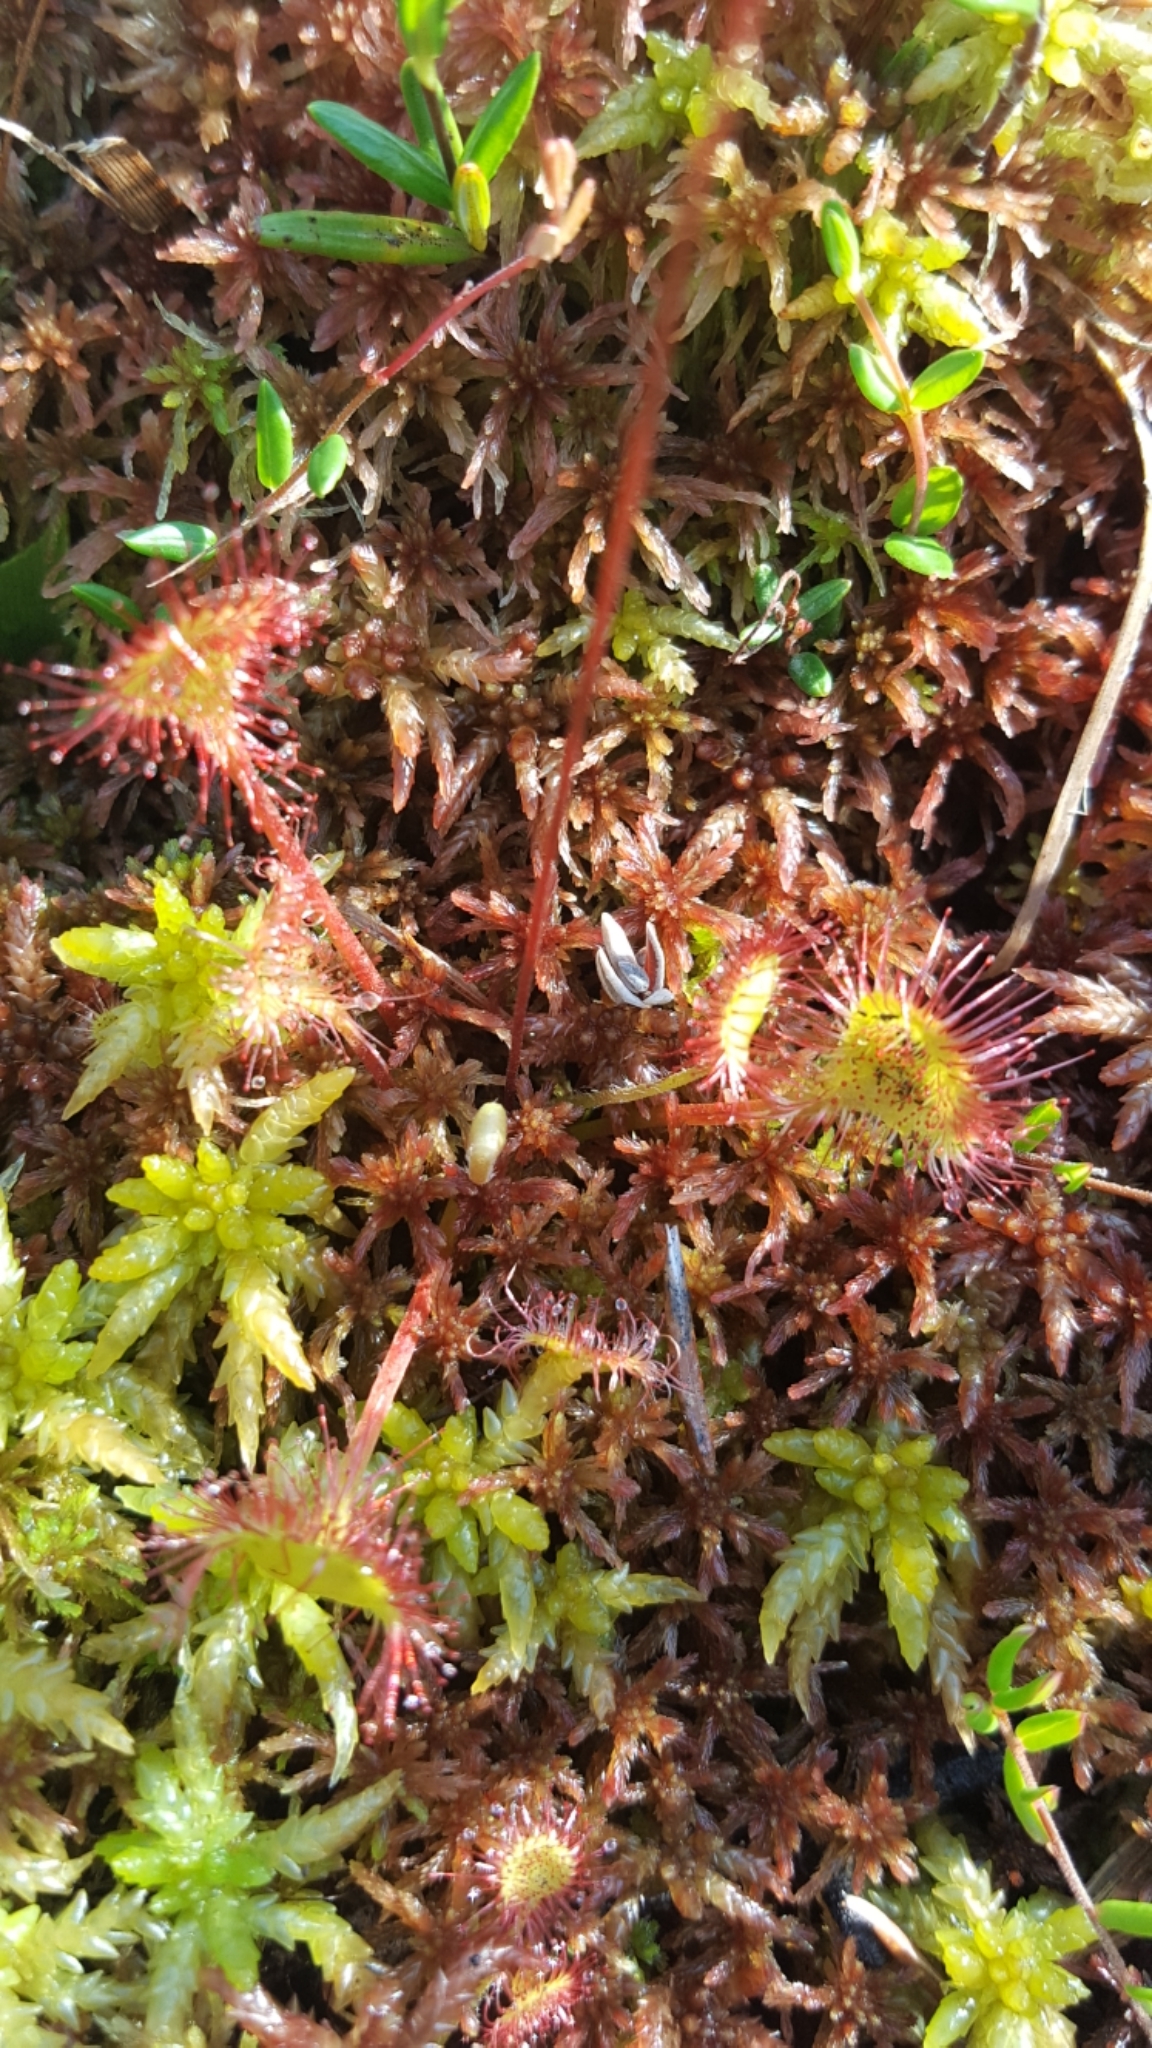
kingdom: Plantae
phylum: Tracheophyta
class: Magnoliopsida
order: Caryophyllales
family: Droseraceae
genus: Drosera
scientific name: Drosera rotundifolia
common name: Round-leaved sundew
